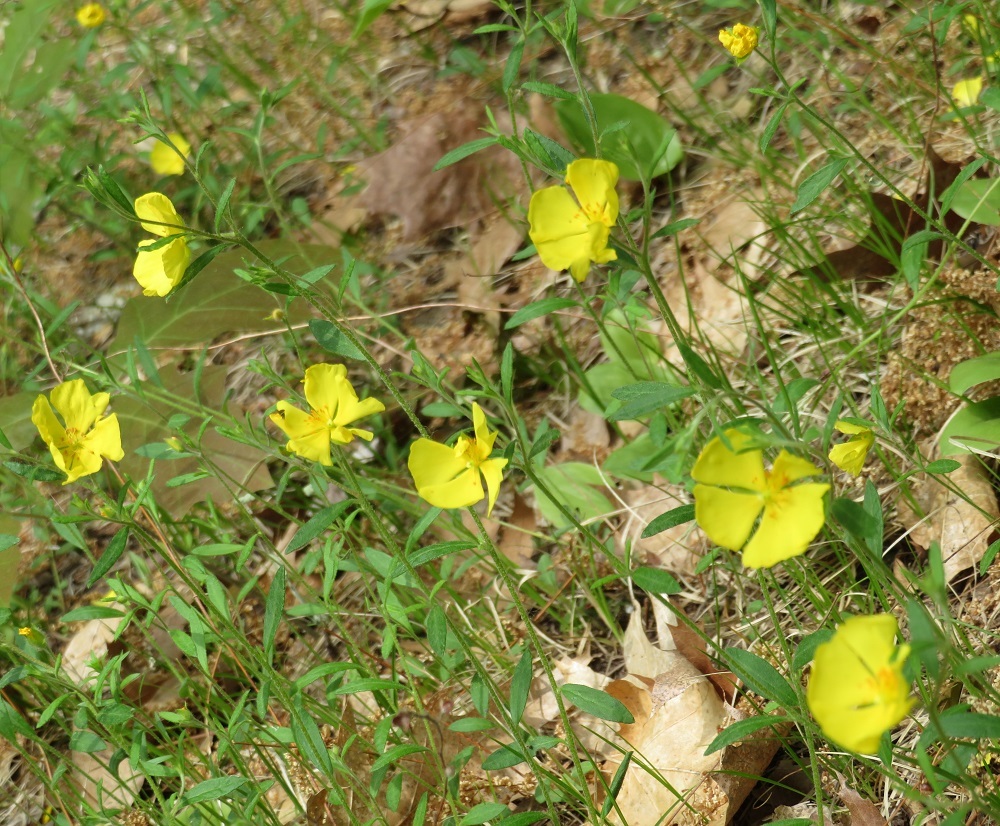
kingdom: Plantae
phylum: Tracheophyta
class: Magnoliopsida
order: Malvales
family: Cistaceae
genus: Crocanthemum
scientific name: Crocanthemum canadense
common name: Canada frostweed
